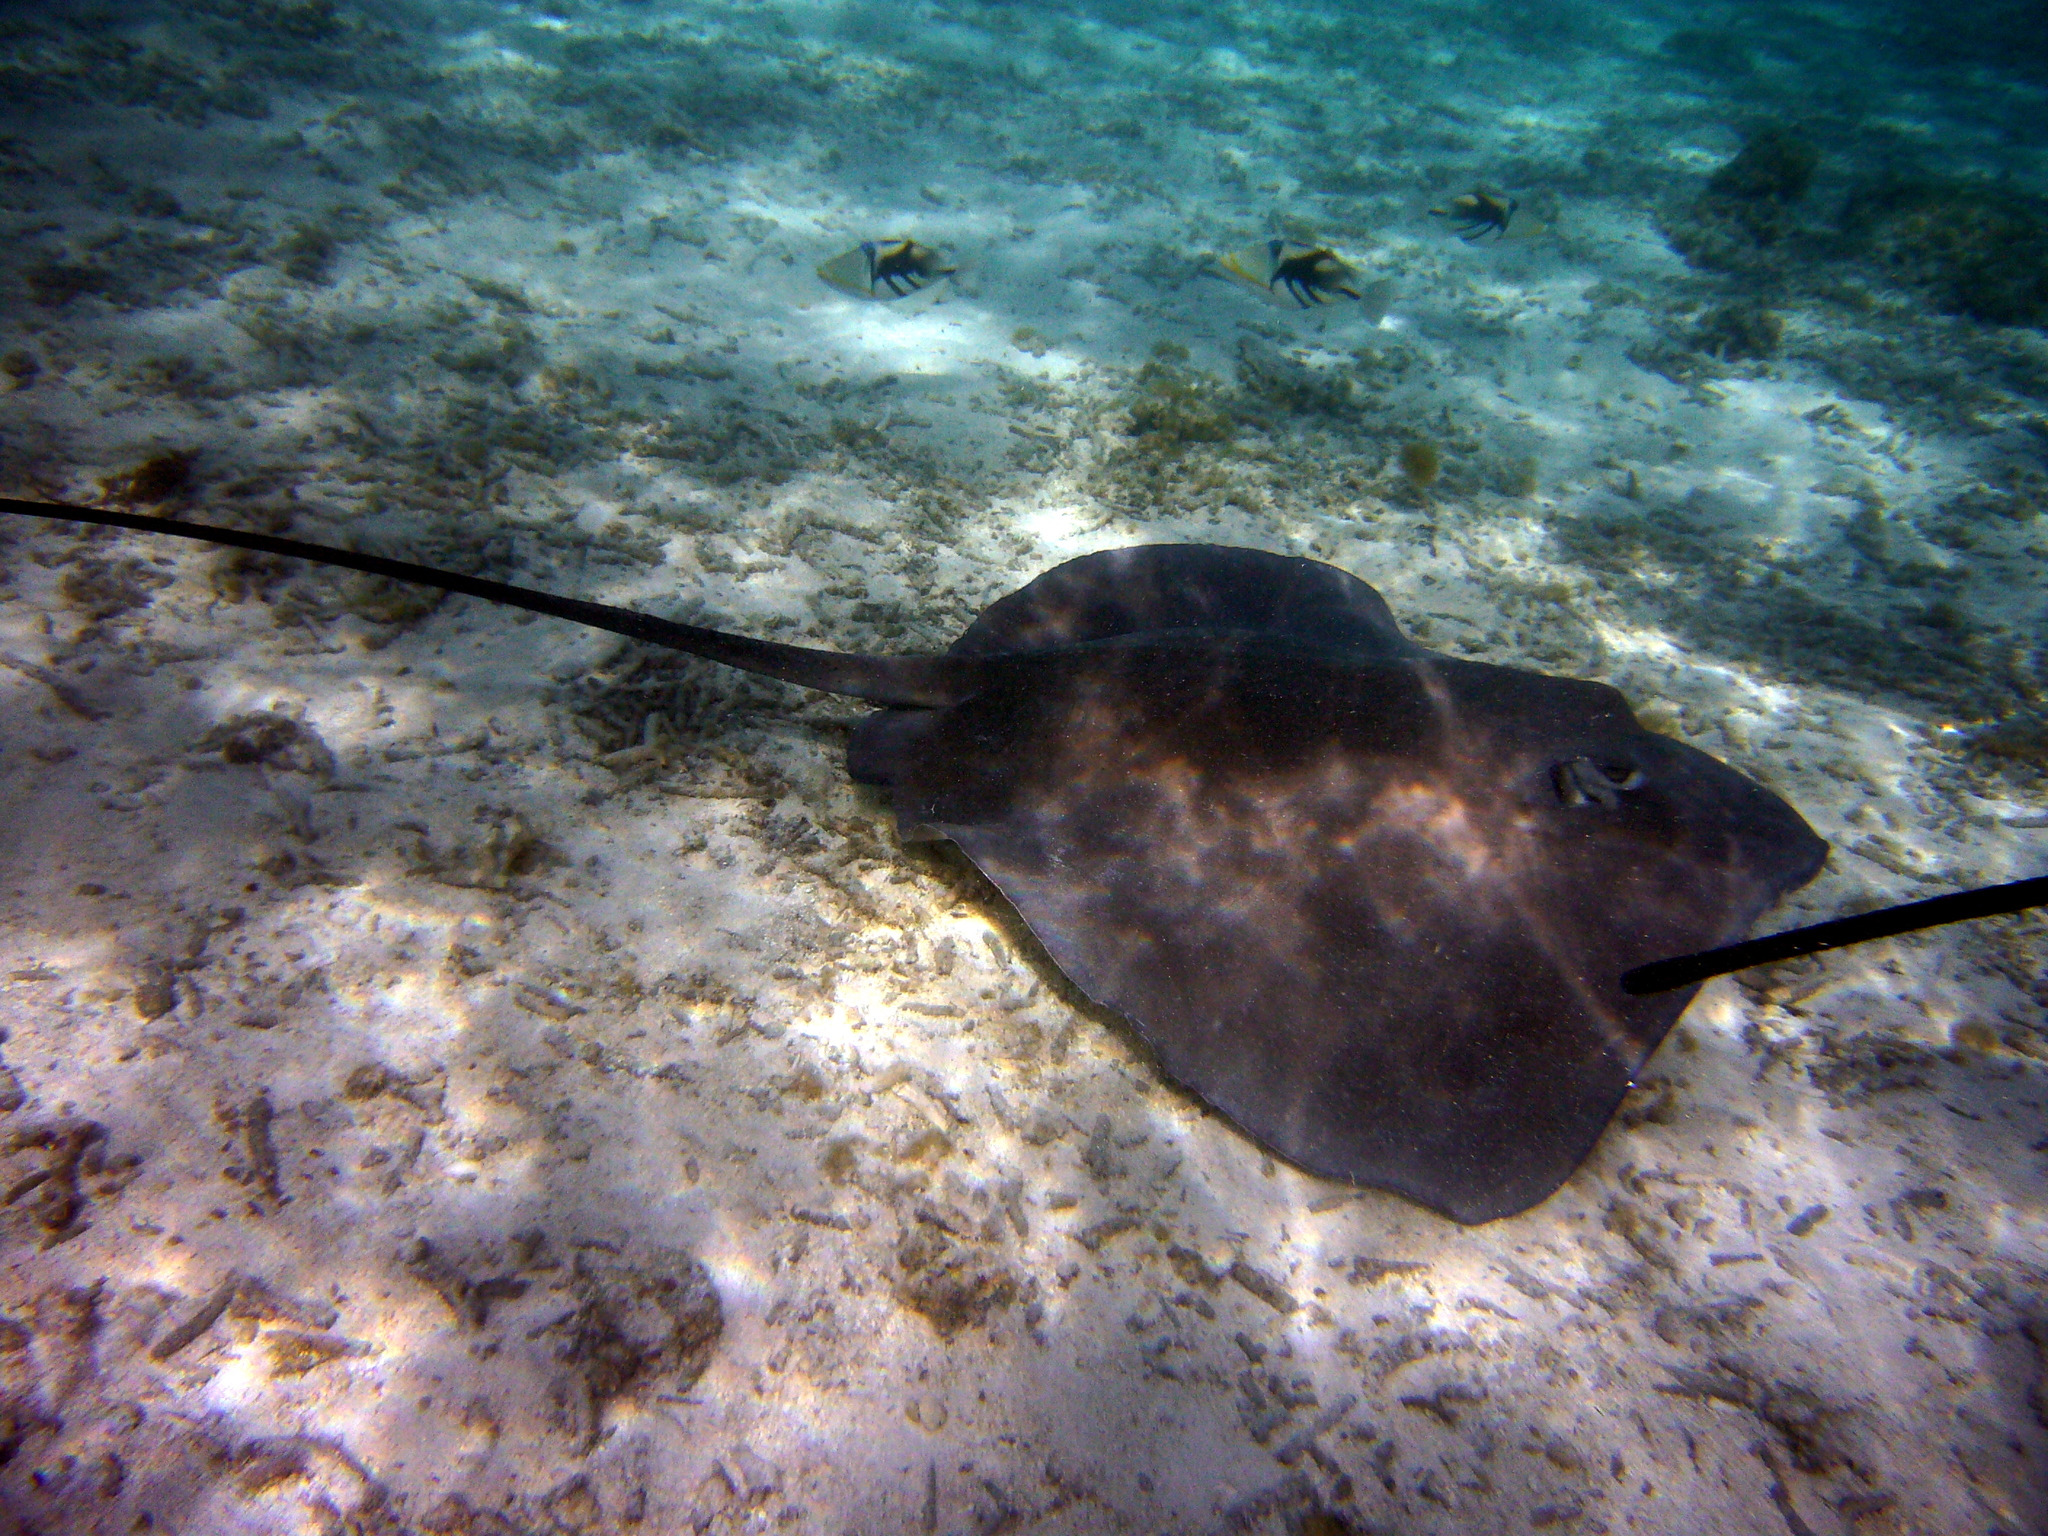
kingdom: Animalia
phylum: Chordata
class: Elasmobranchii
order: Myliobatiformes
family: Dasyatidae
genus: Pateobatis
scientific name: Pateobatis fai
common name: Pink whipray
